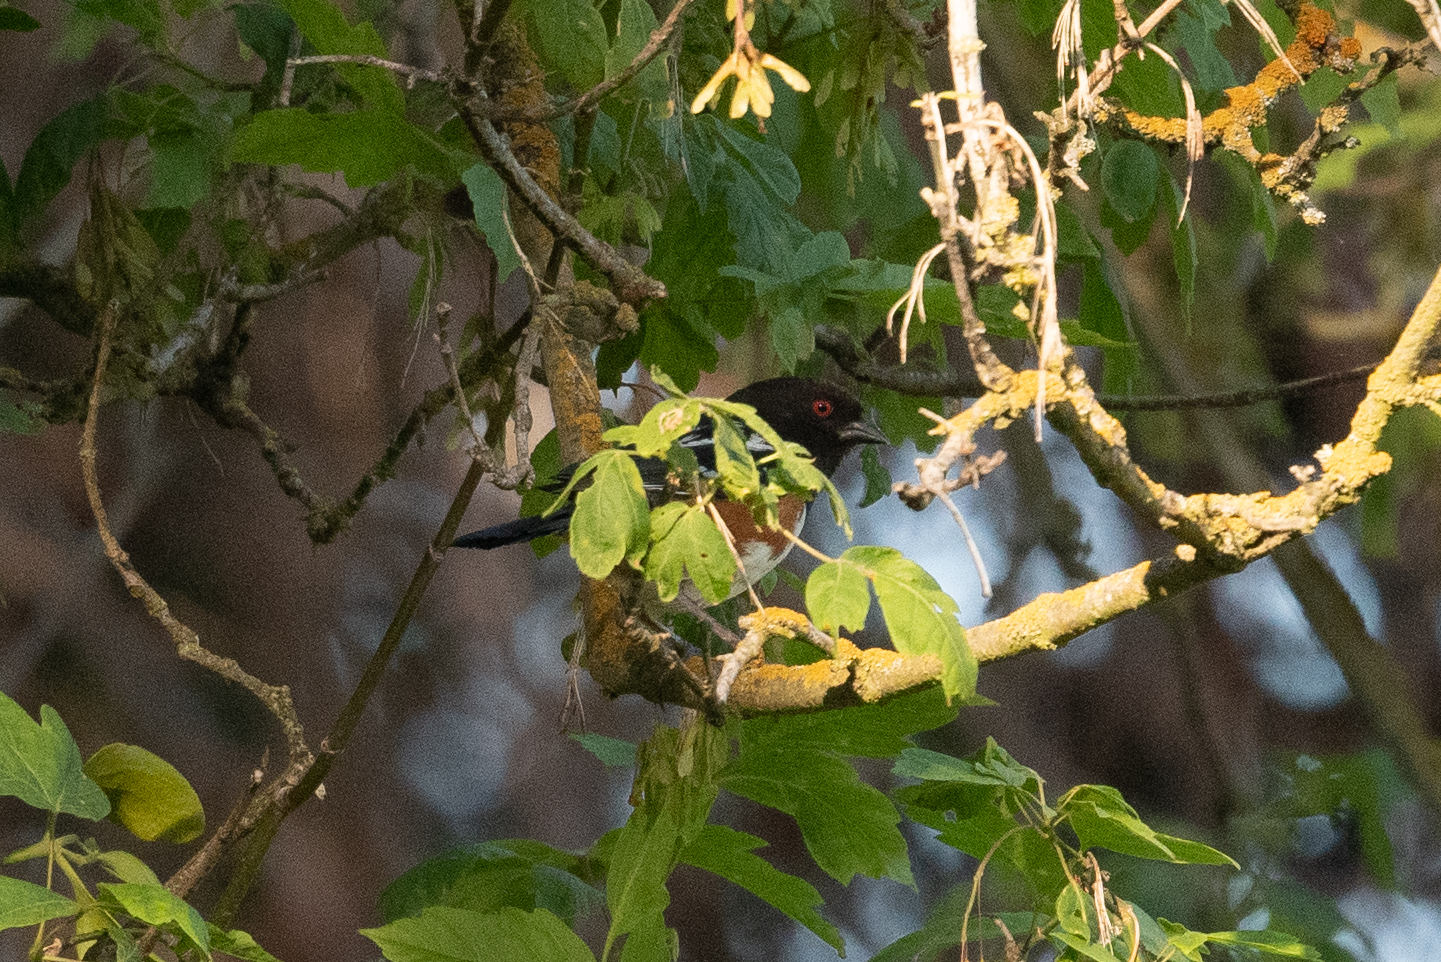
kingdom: Animalia
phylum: Chordata
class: Aves
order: Passeriformes
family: Passerellidae
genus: Pipilo
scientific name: Pipilo maculatus
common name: Spotted towhee
